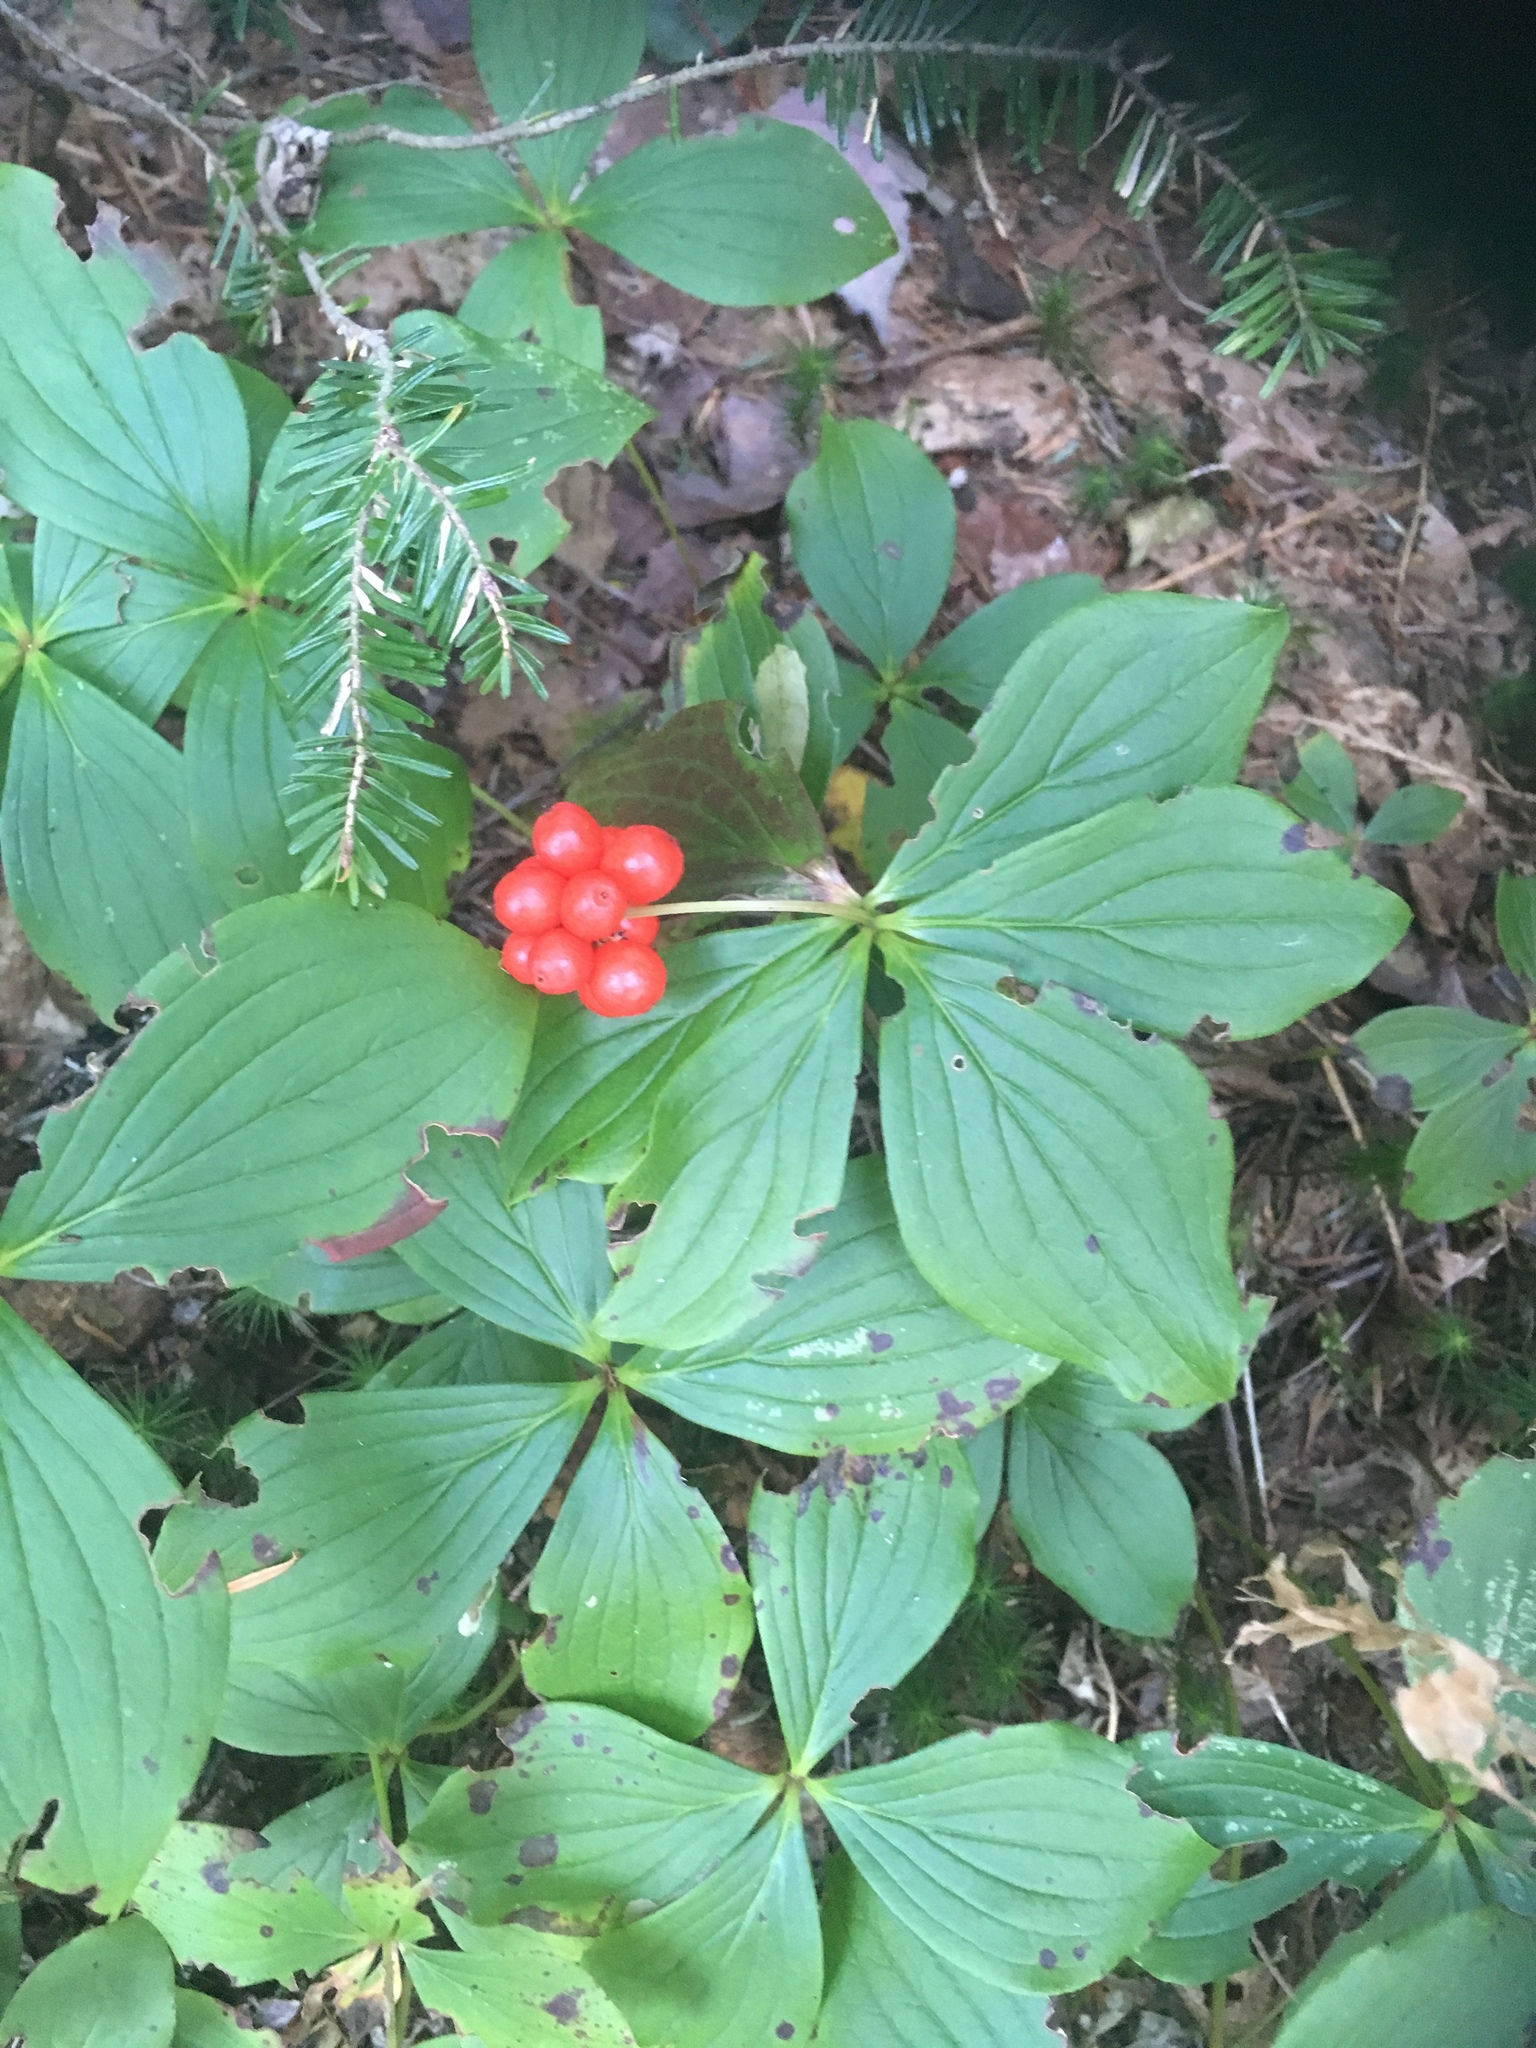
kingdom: Plantae
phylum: Tracheophyta
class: Magnoliopsida
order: Cornales
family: Cornaceae
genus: Cornus
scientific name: Cornus canadensis
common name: Creeping dogwood
